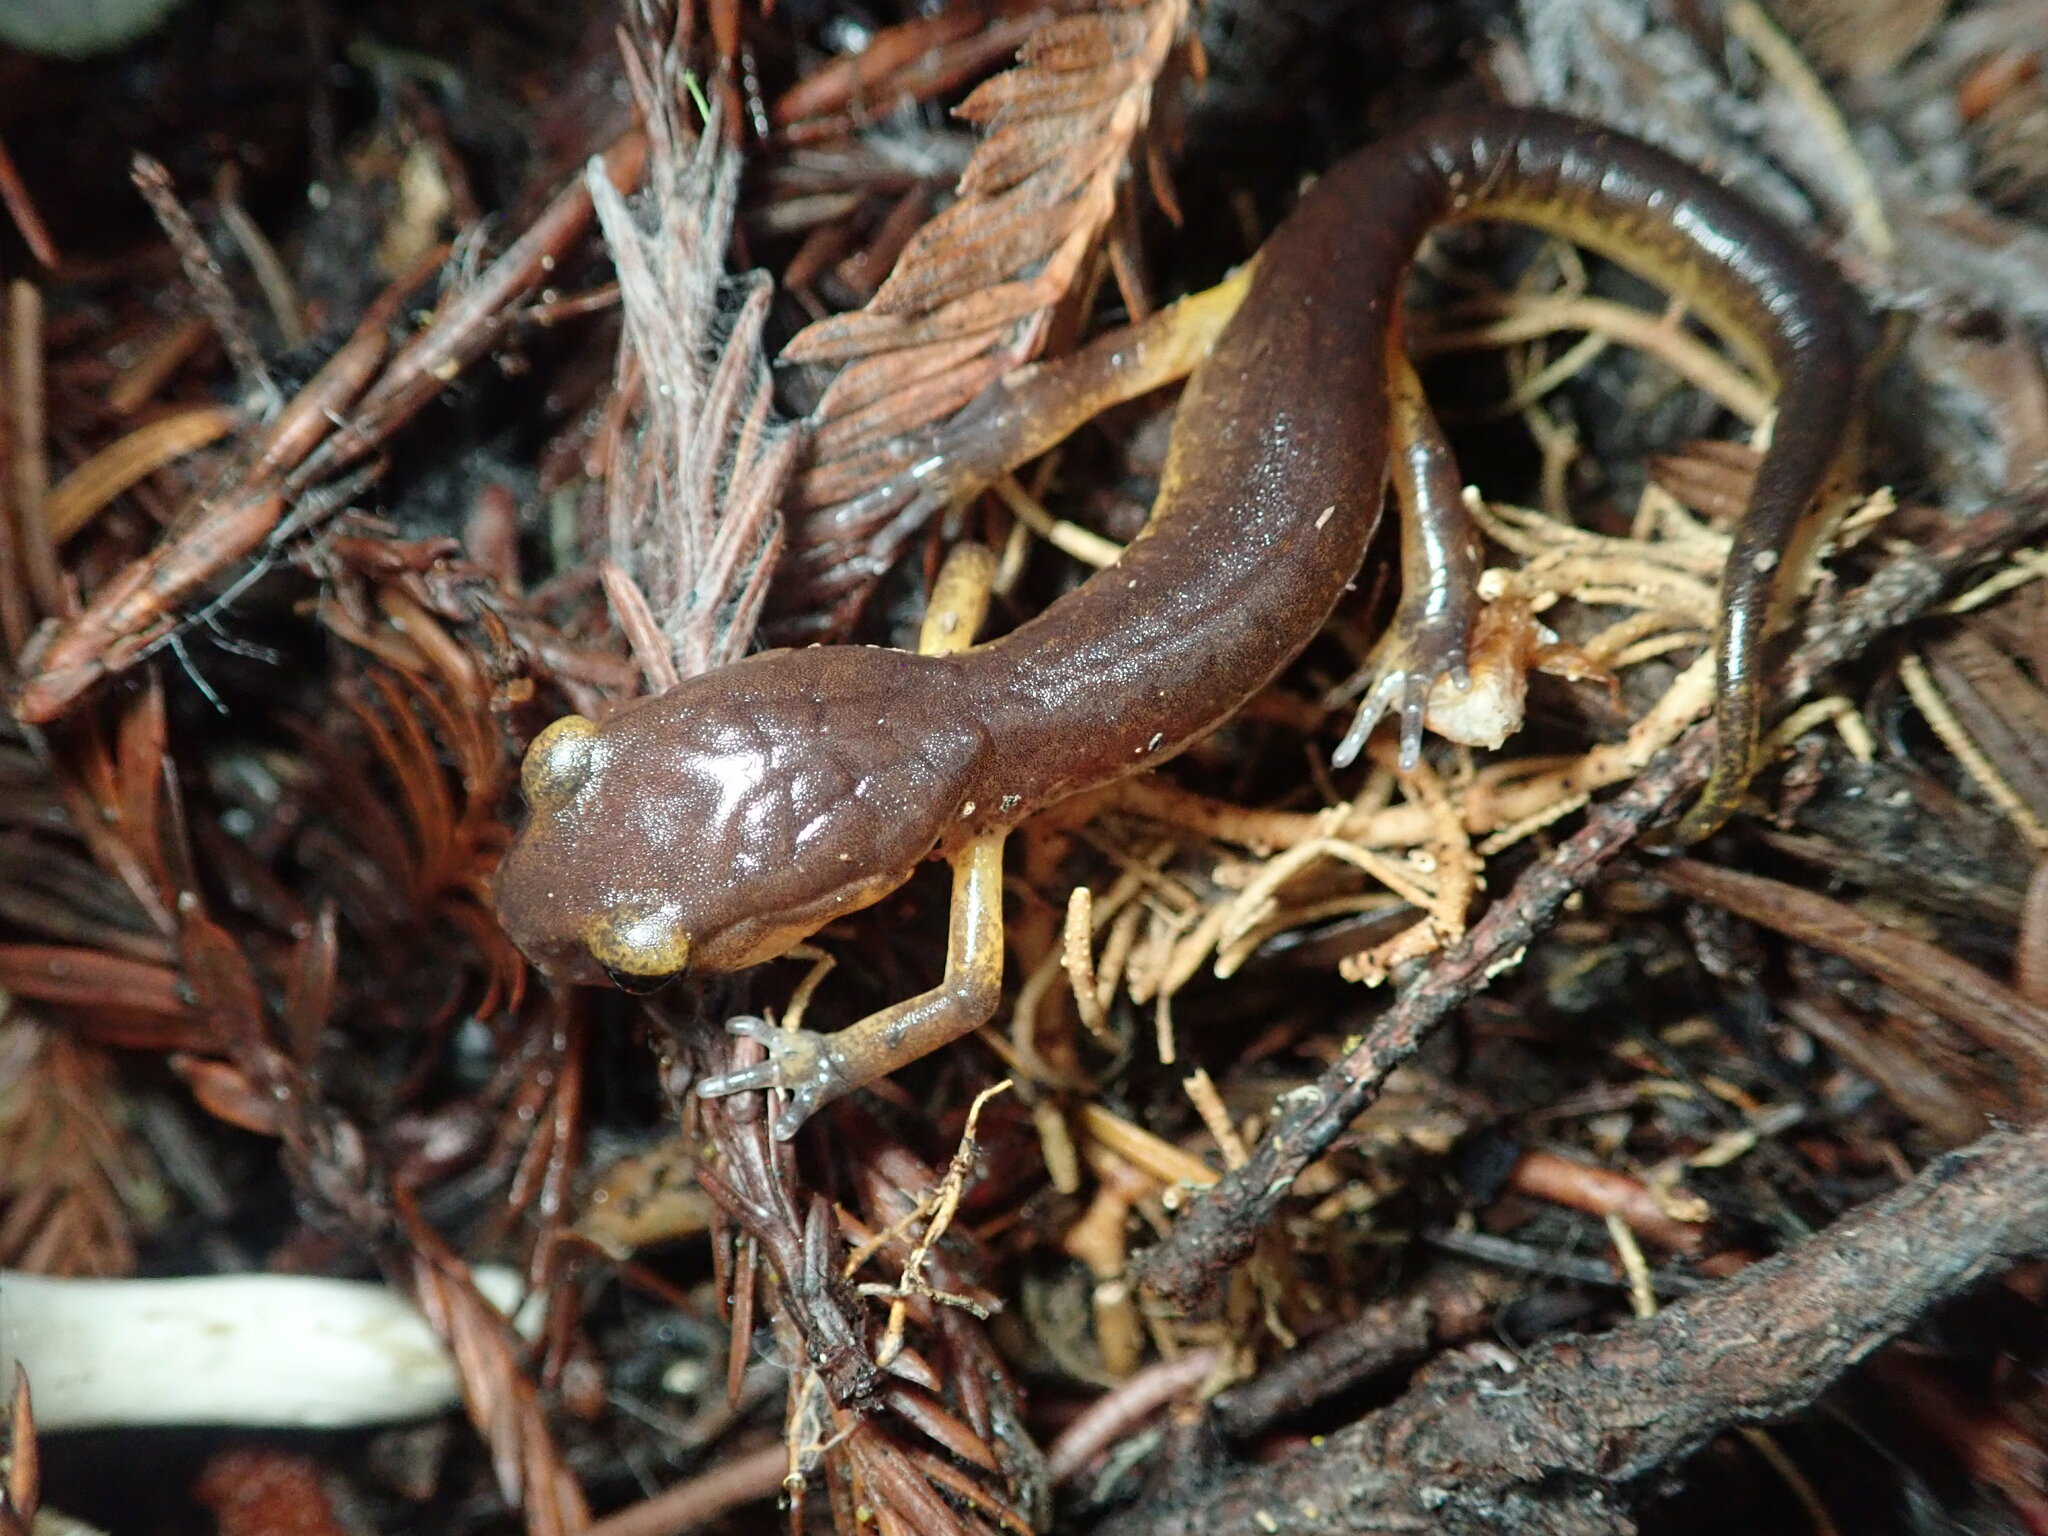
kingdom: Animalia
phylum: Chordata
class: Amphibia
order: Caudata
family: Plethodontidae
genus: Ensatina
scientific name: Ensatina eschscholtzii
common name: Ensatina
